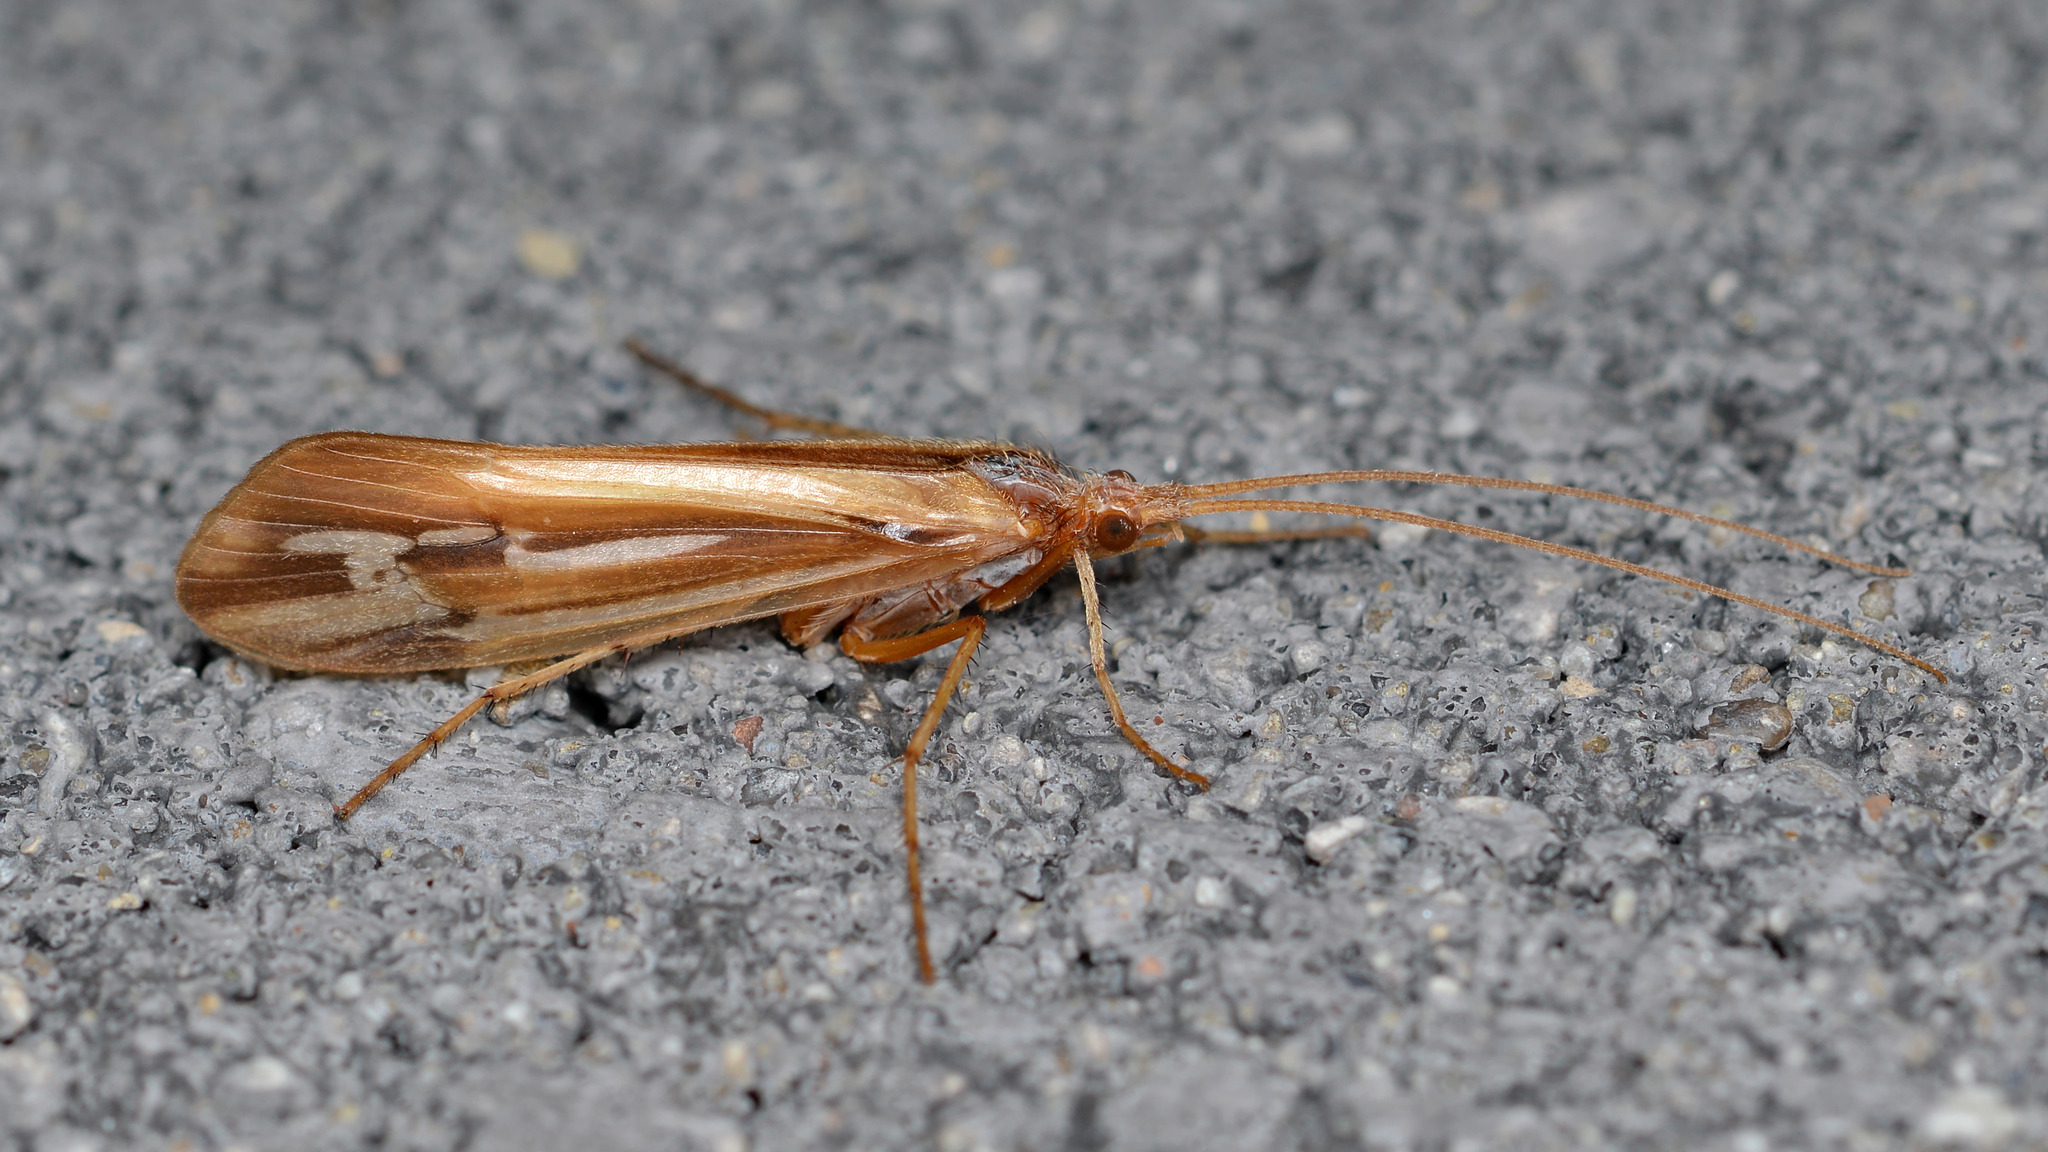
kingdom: Animalia
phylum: Arthropoda
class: Insecta
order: Trichoptera
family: Limnephilidae
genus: Limnephilus
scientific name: Limnephilus ornatus
